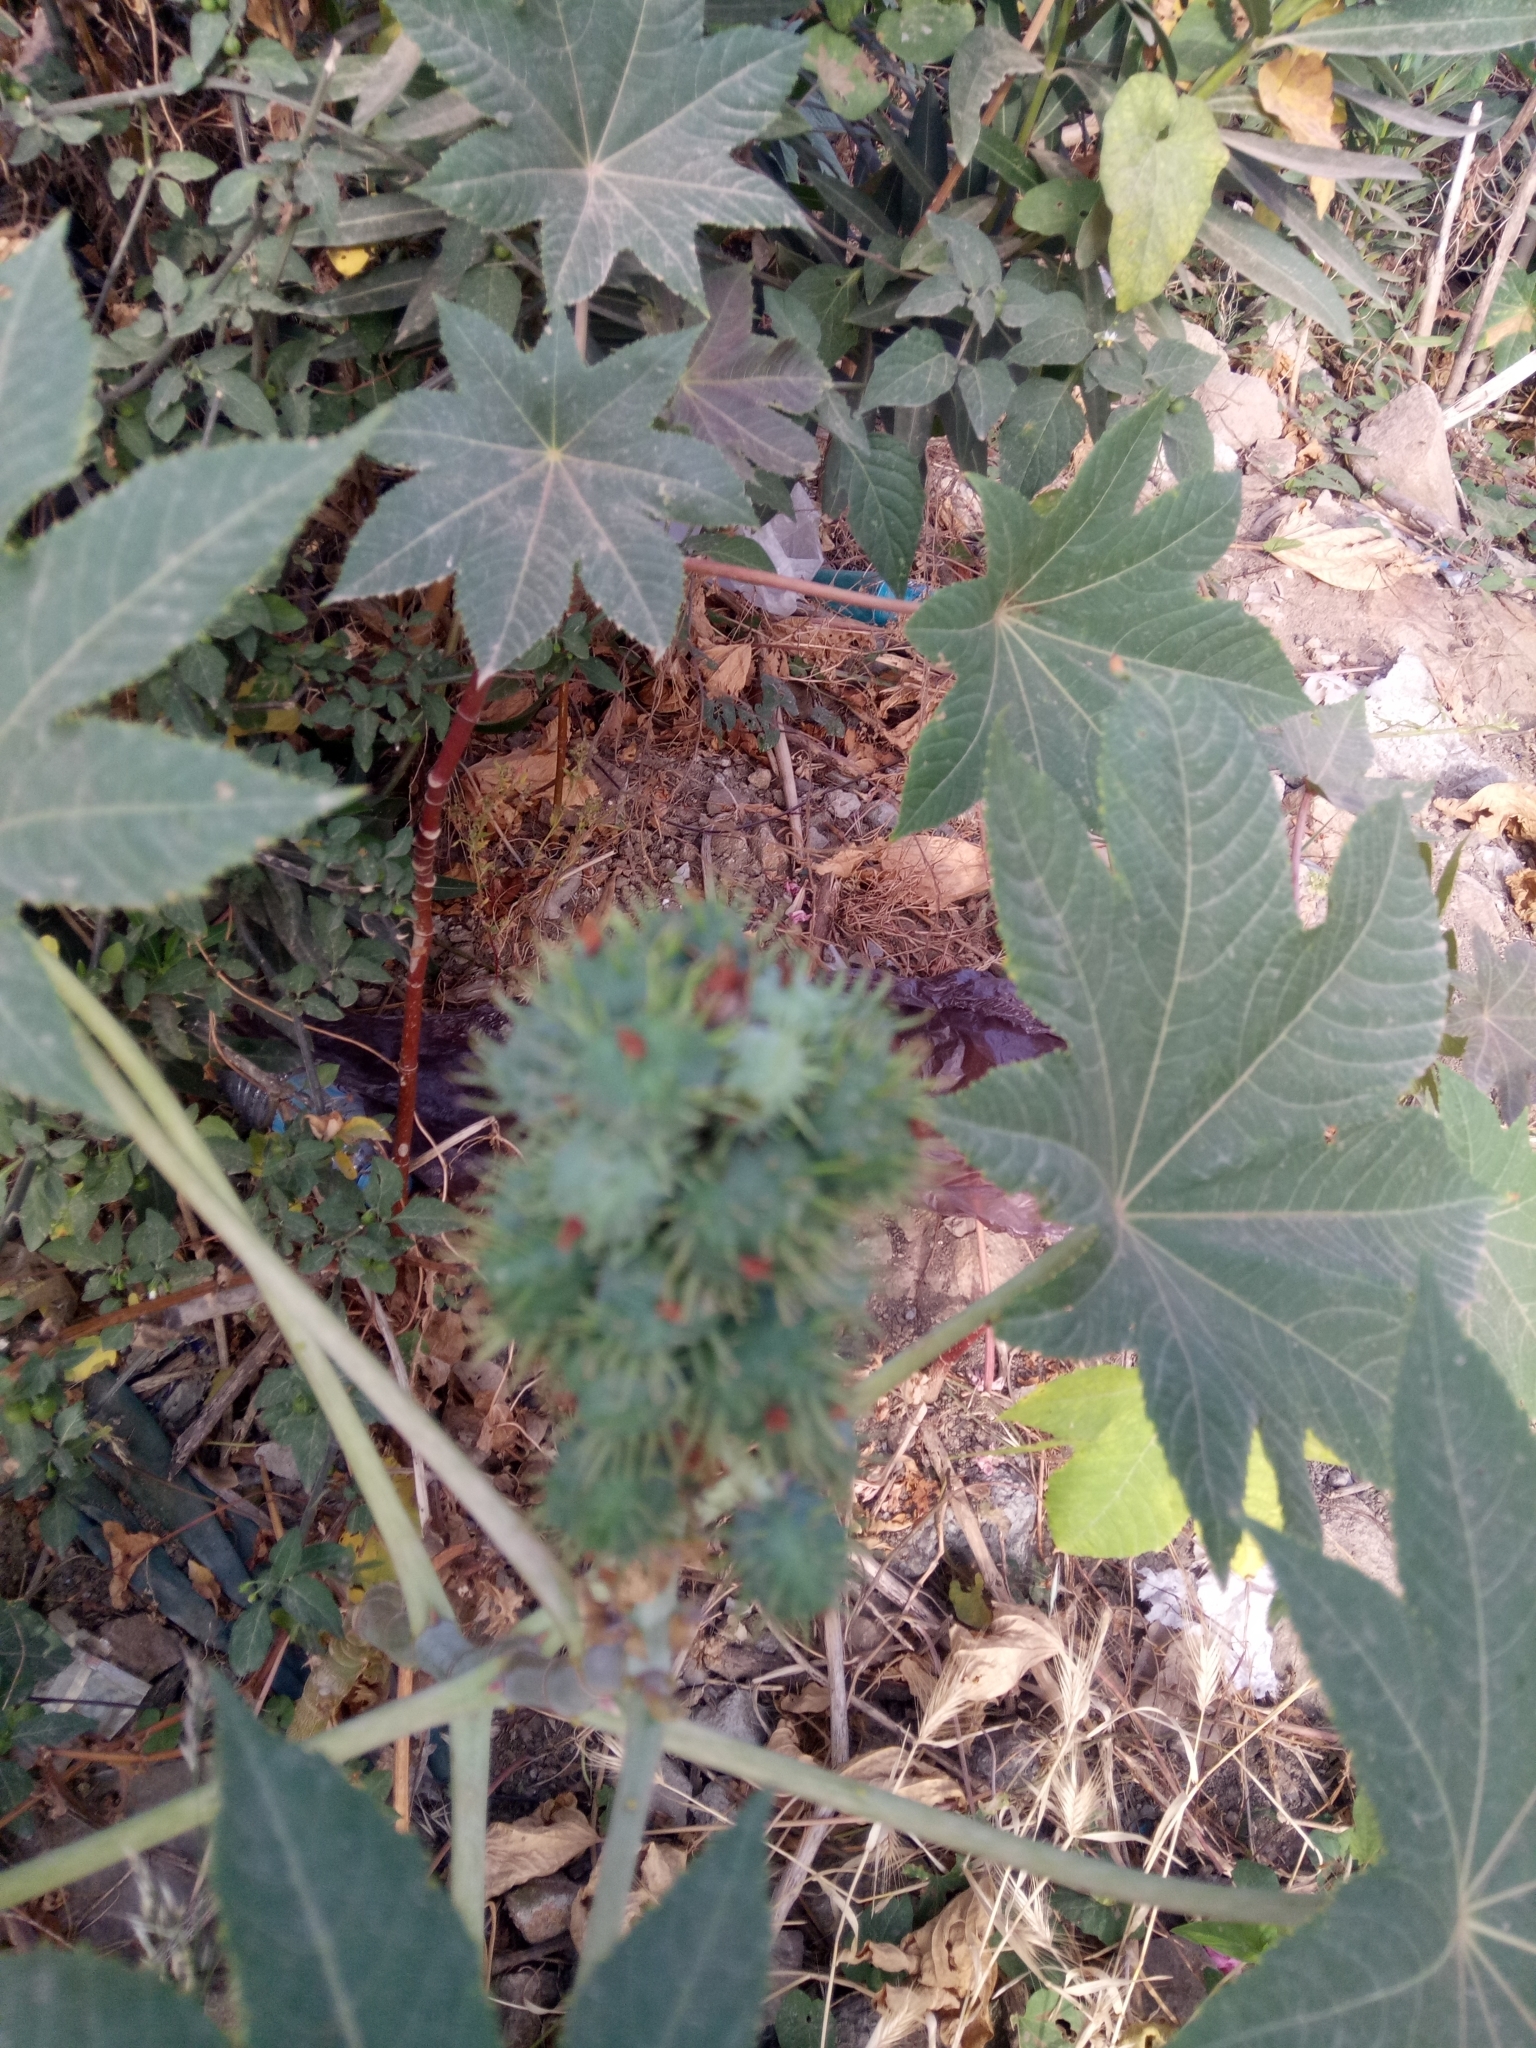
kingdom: Plantae
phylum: Tracheophyta
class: Magnoliopsida
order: Malpighiales
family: Euphorbiaceae
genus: Ricinus
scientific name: Ricinus communis
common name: Castor-oil-plant
